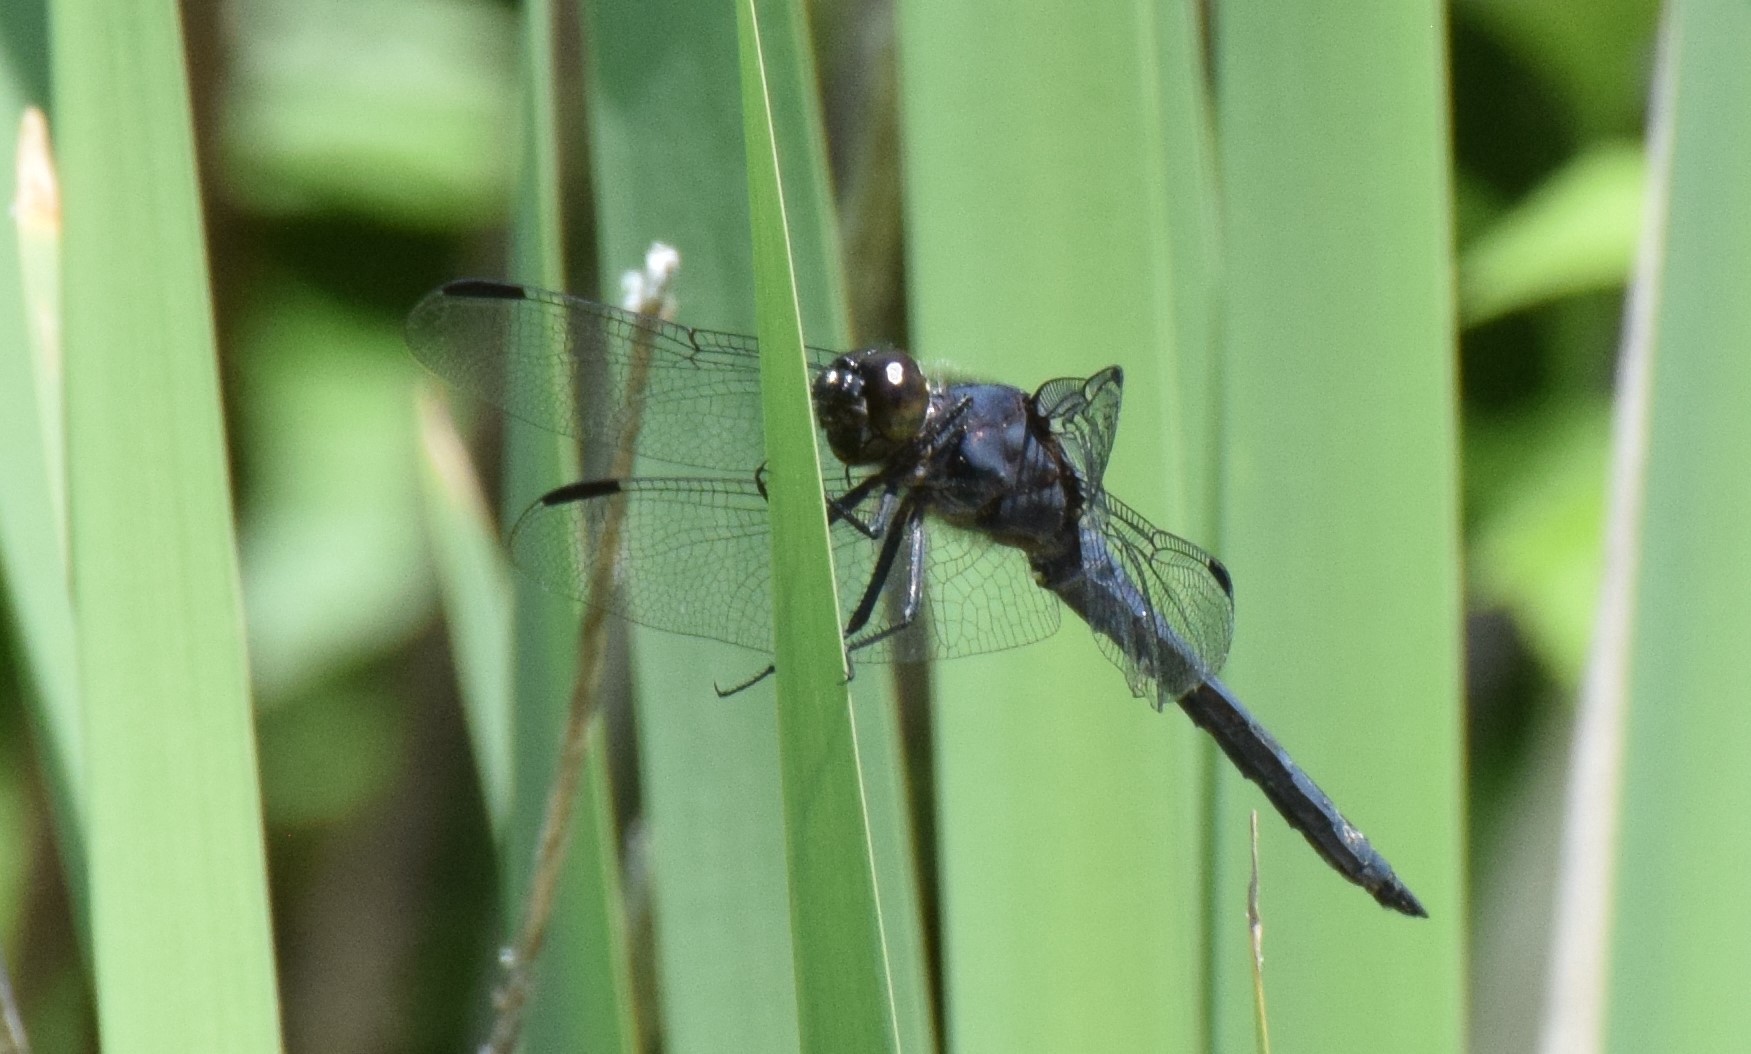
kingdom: Animalia
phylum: Arthropoda
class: Insecta
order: Odonata
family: Libellulidae
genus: Libellula
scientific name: Libellula incesta
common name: Slaty skimmer
